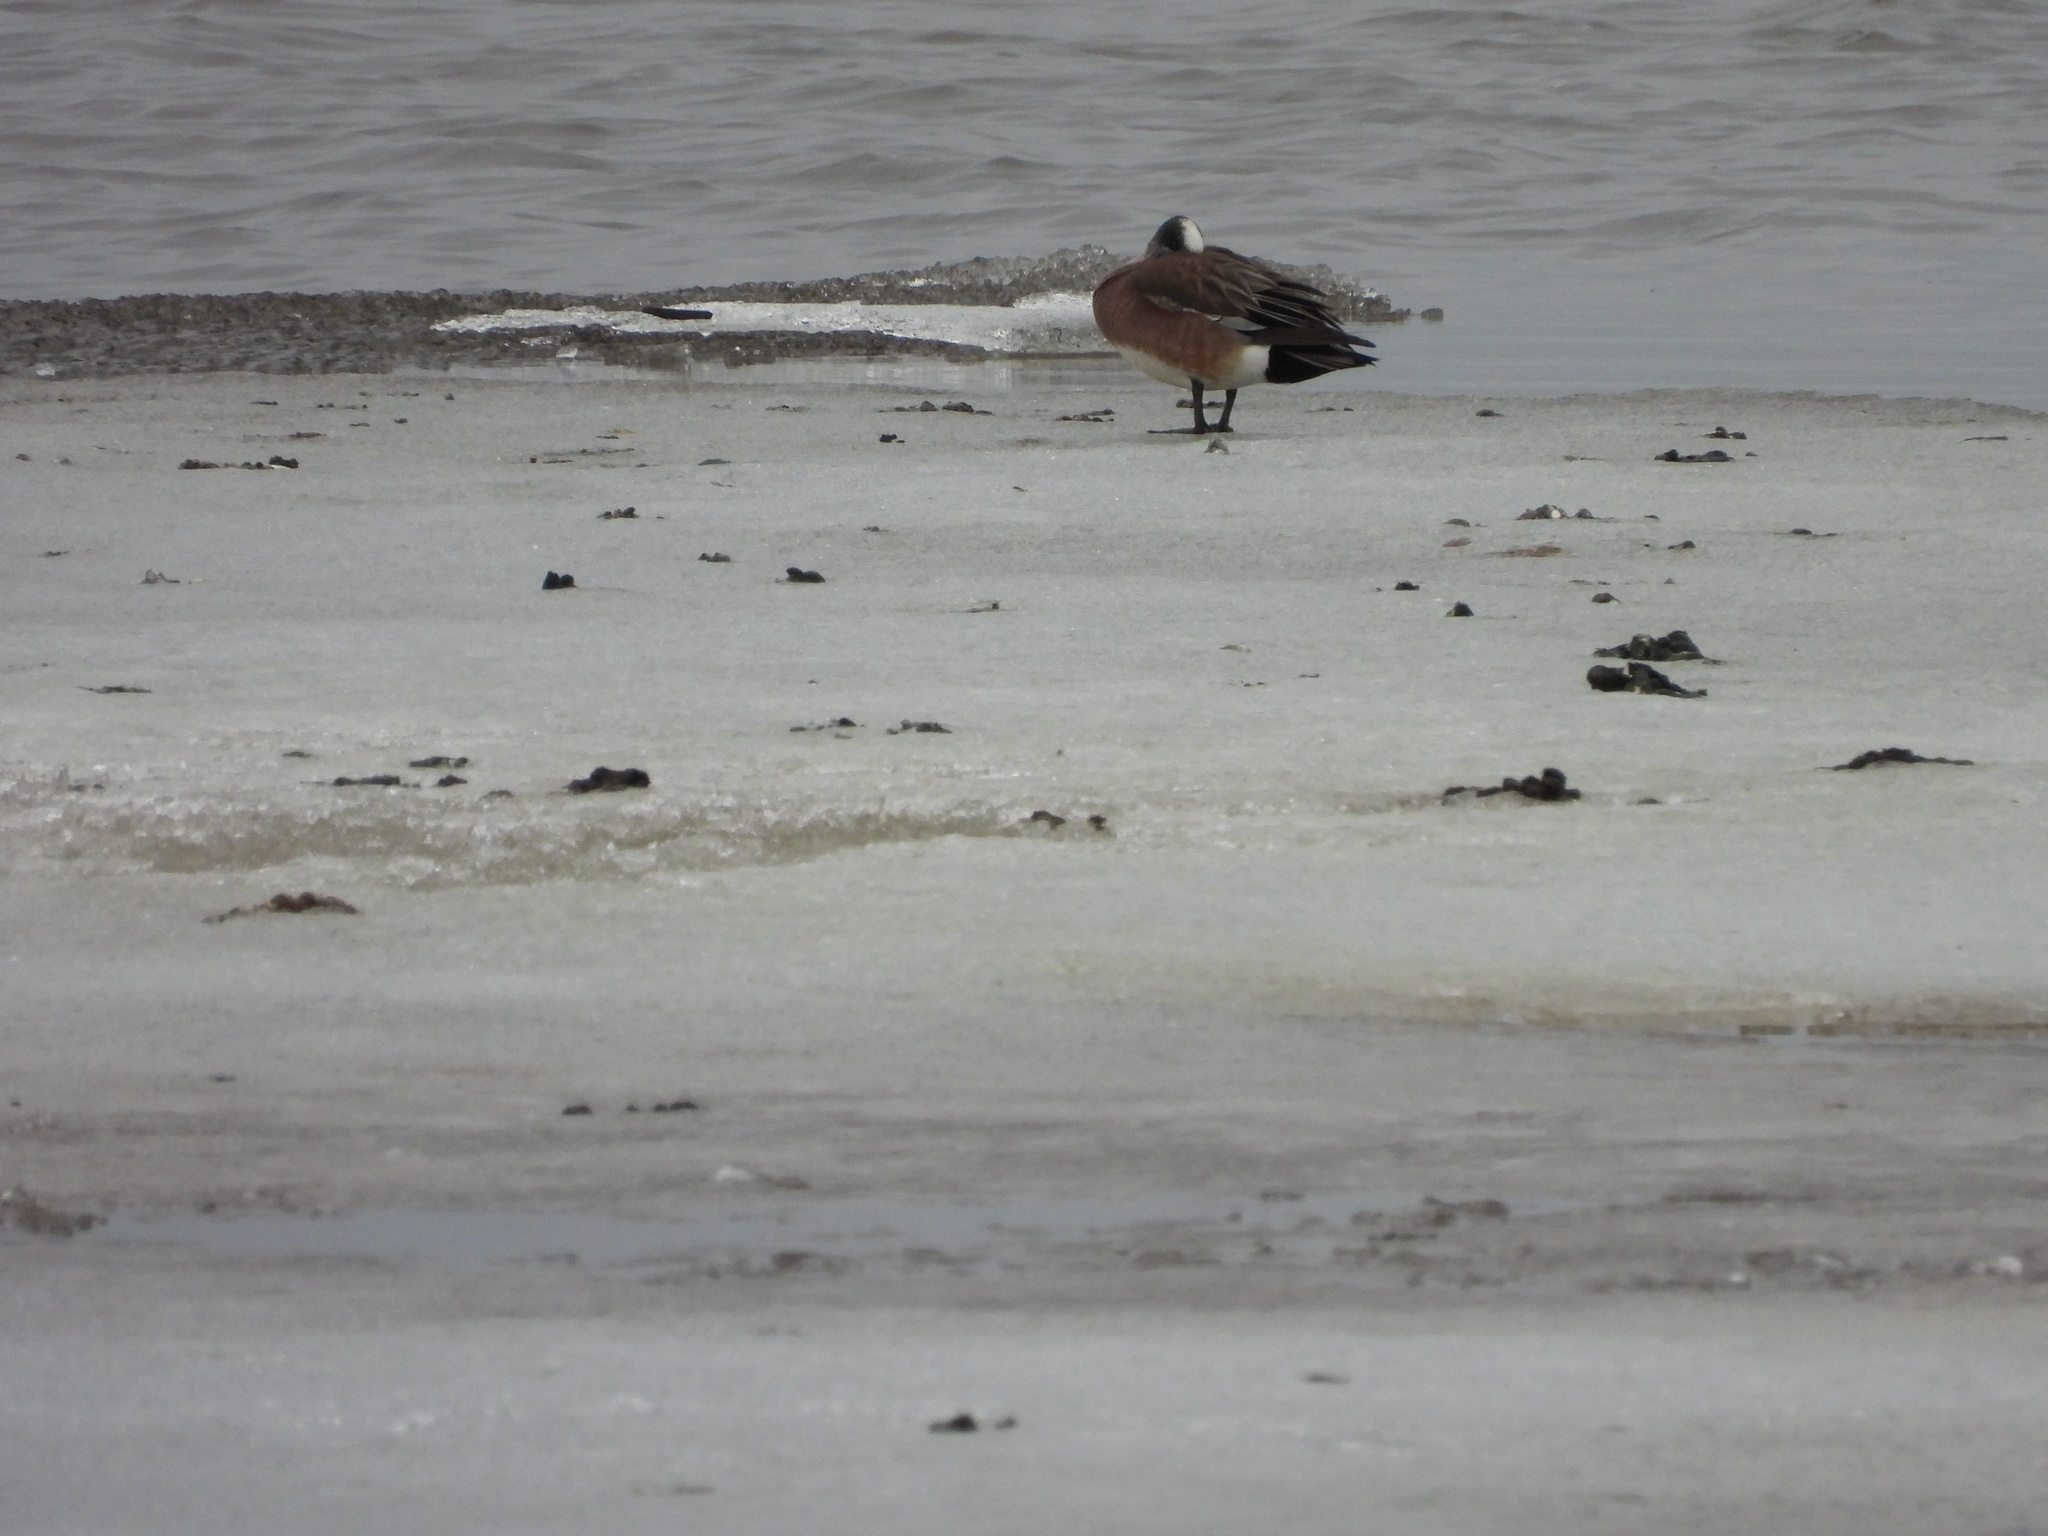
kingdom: Animalia
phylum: Chordata
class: Aves
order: Anseriformes
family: Anatidae
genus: Mareca
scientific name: Mareca americana
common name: American wigeon
